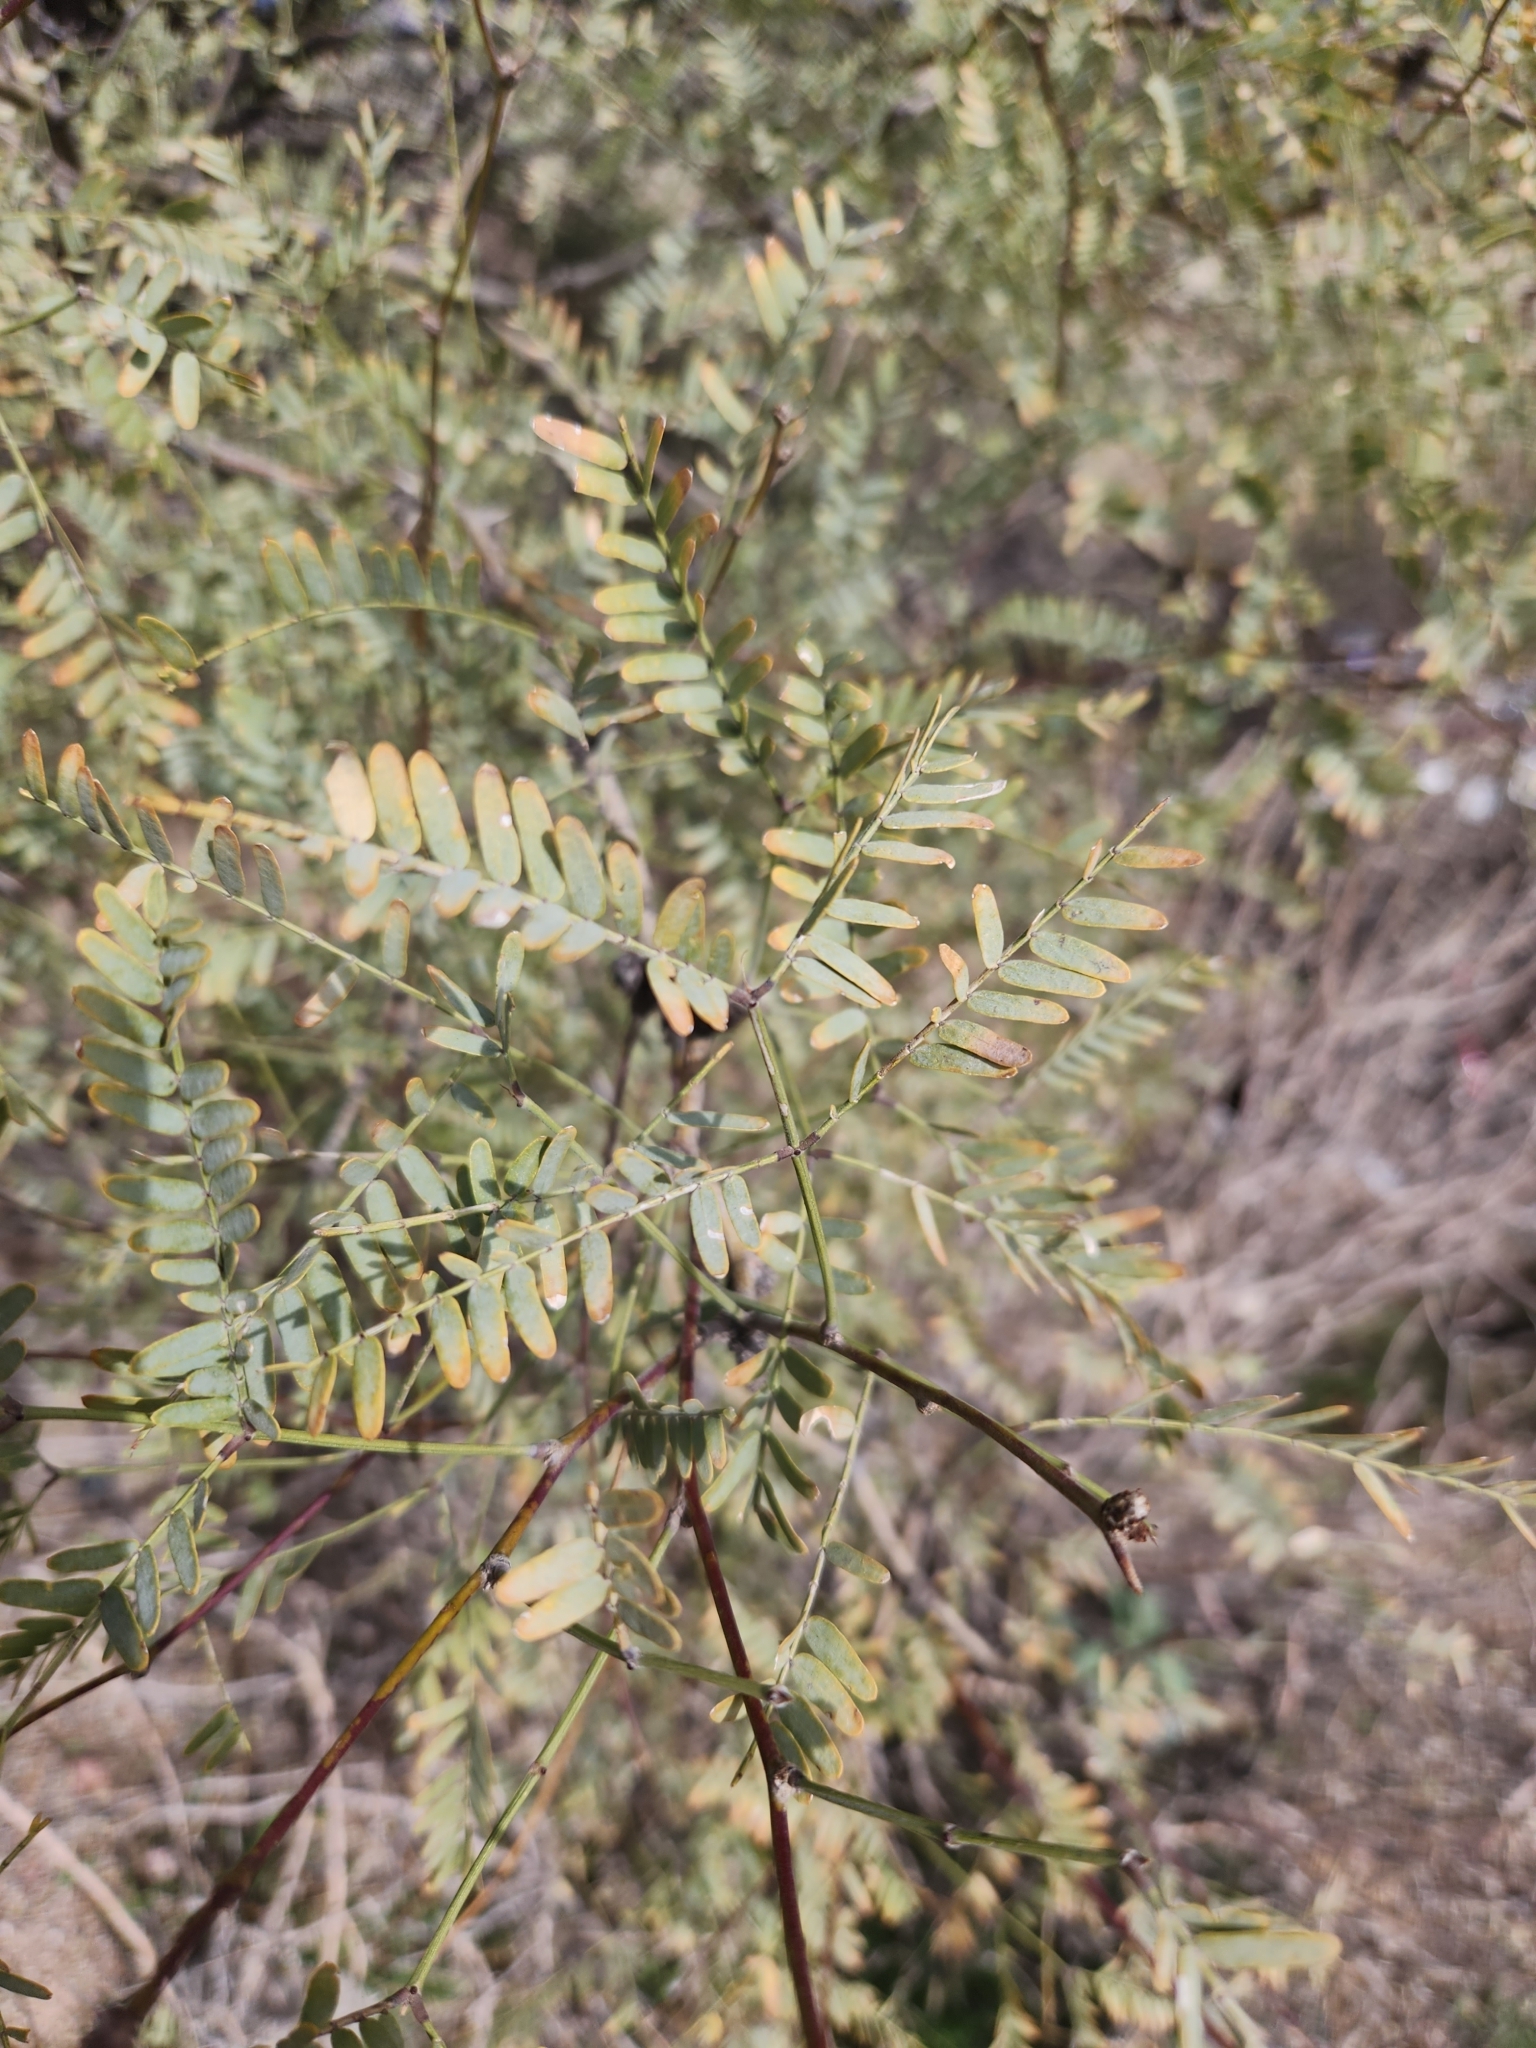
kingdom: Plantae
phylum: Tracheophyta
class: Magnoliopsida
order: Fabales
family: Fabaceae
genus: Prosopis
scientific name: Prosopis velutina
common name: Velvet mesquite
